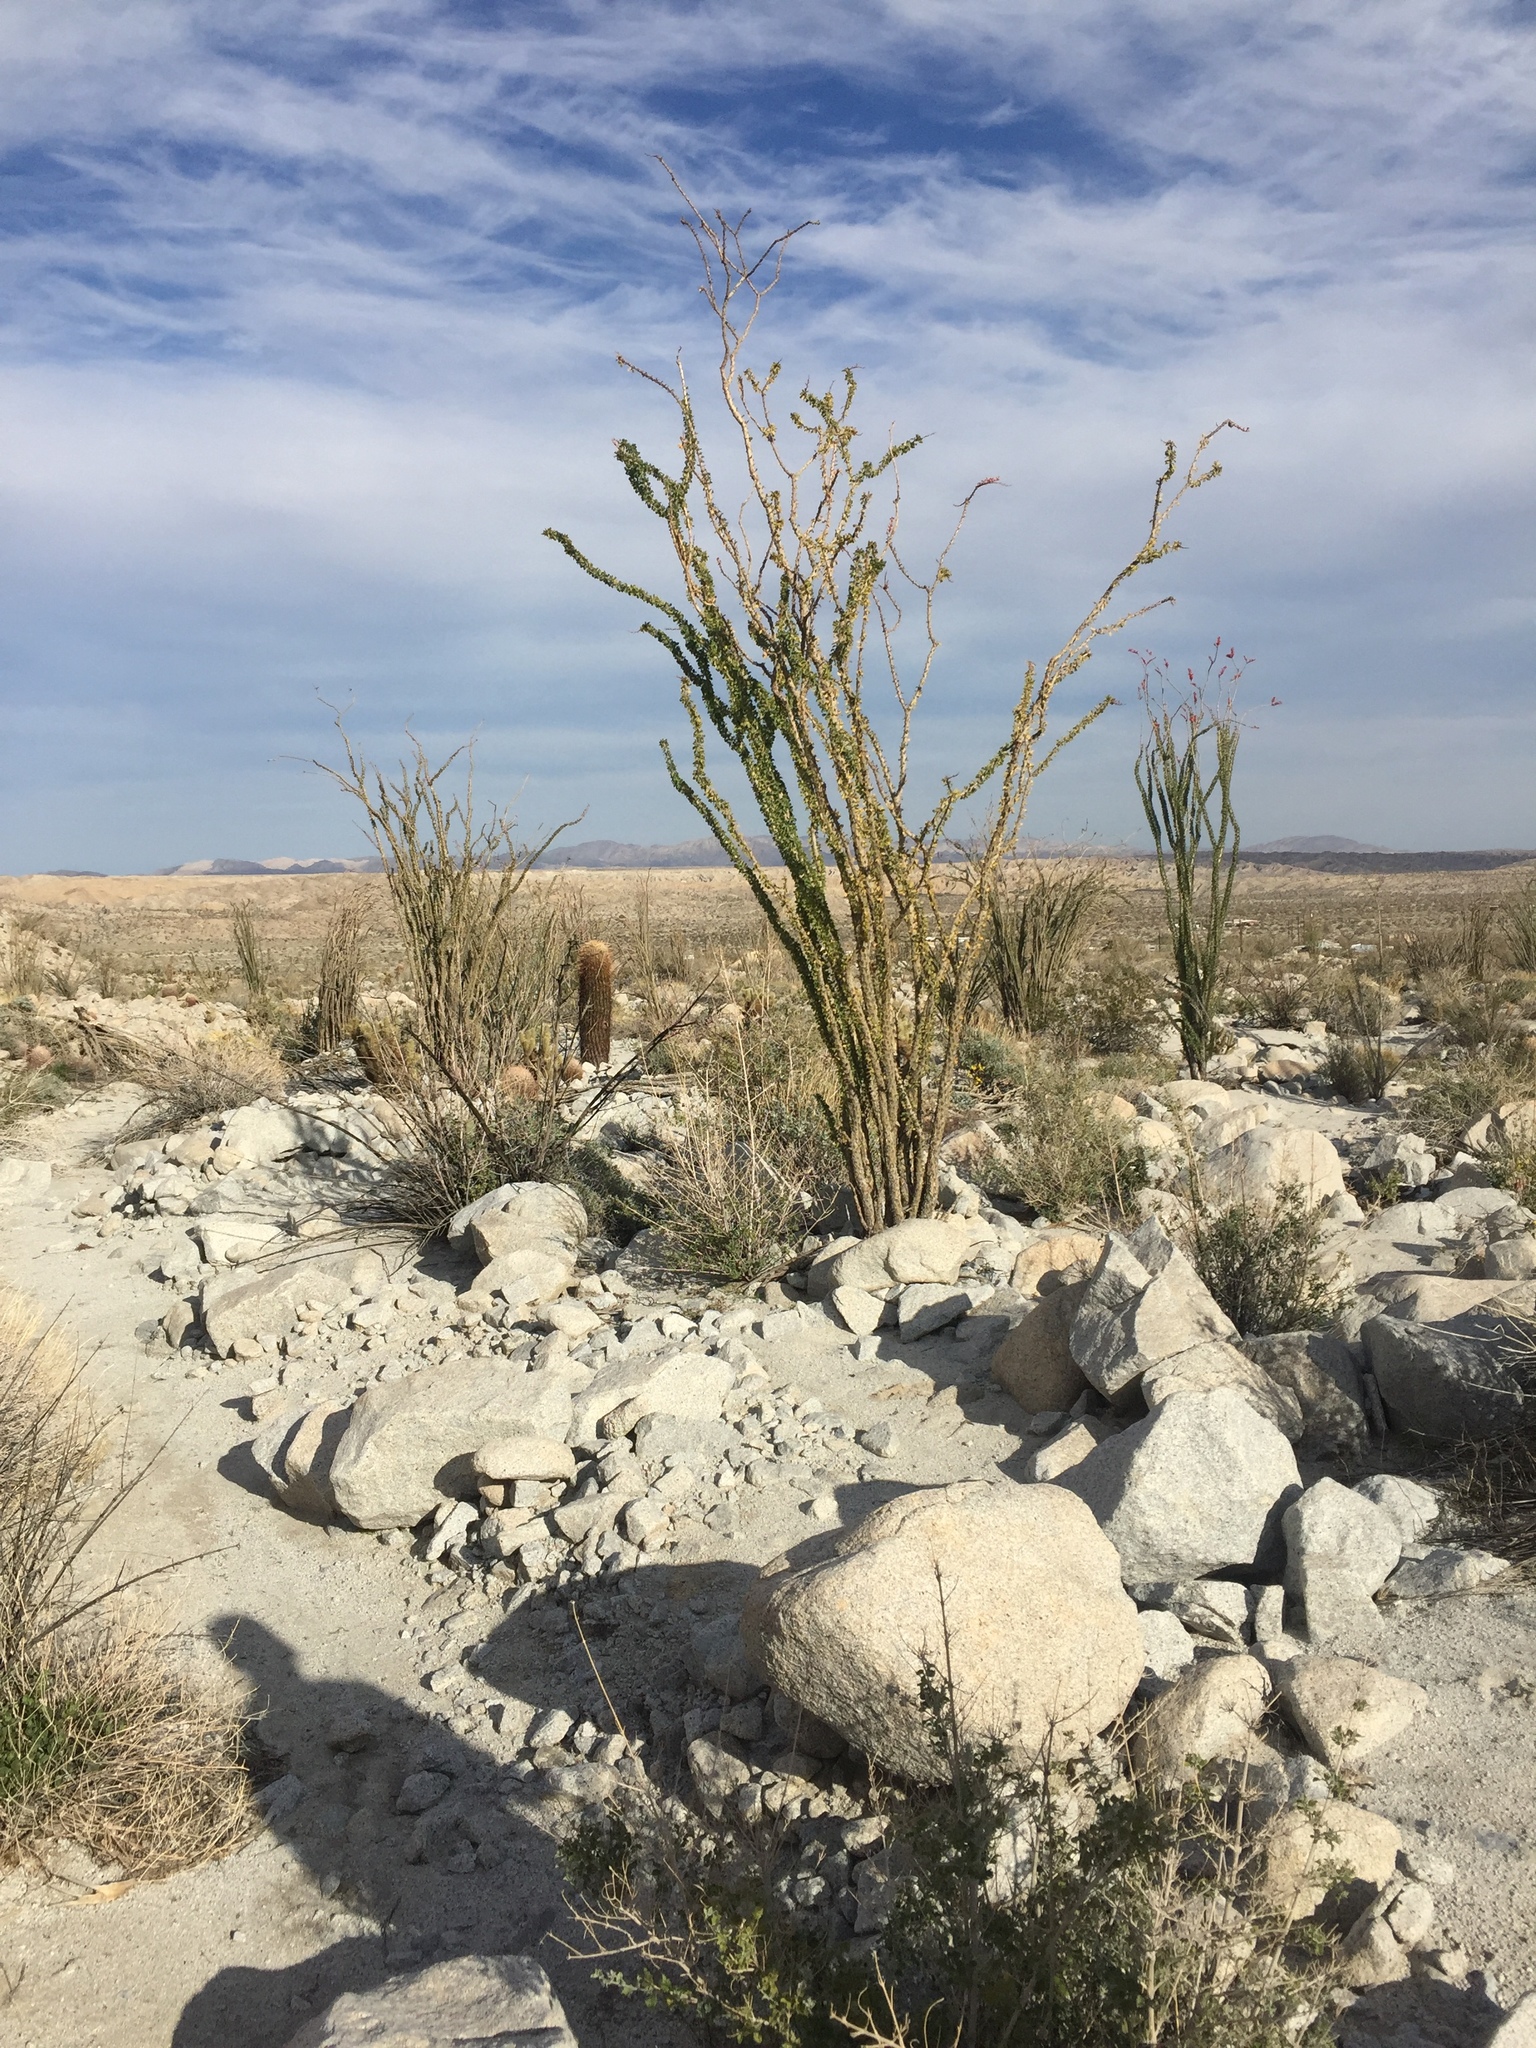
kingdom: Plantae
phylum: Tracheophyta
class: Magnoliopsida
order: Ericales
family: Fouquieriaceae
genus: Fouquieria
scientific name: Fouquieria splendens
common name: Vine-cactus
